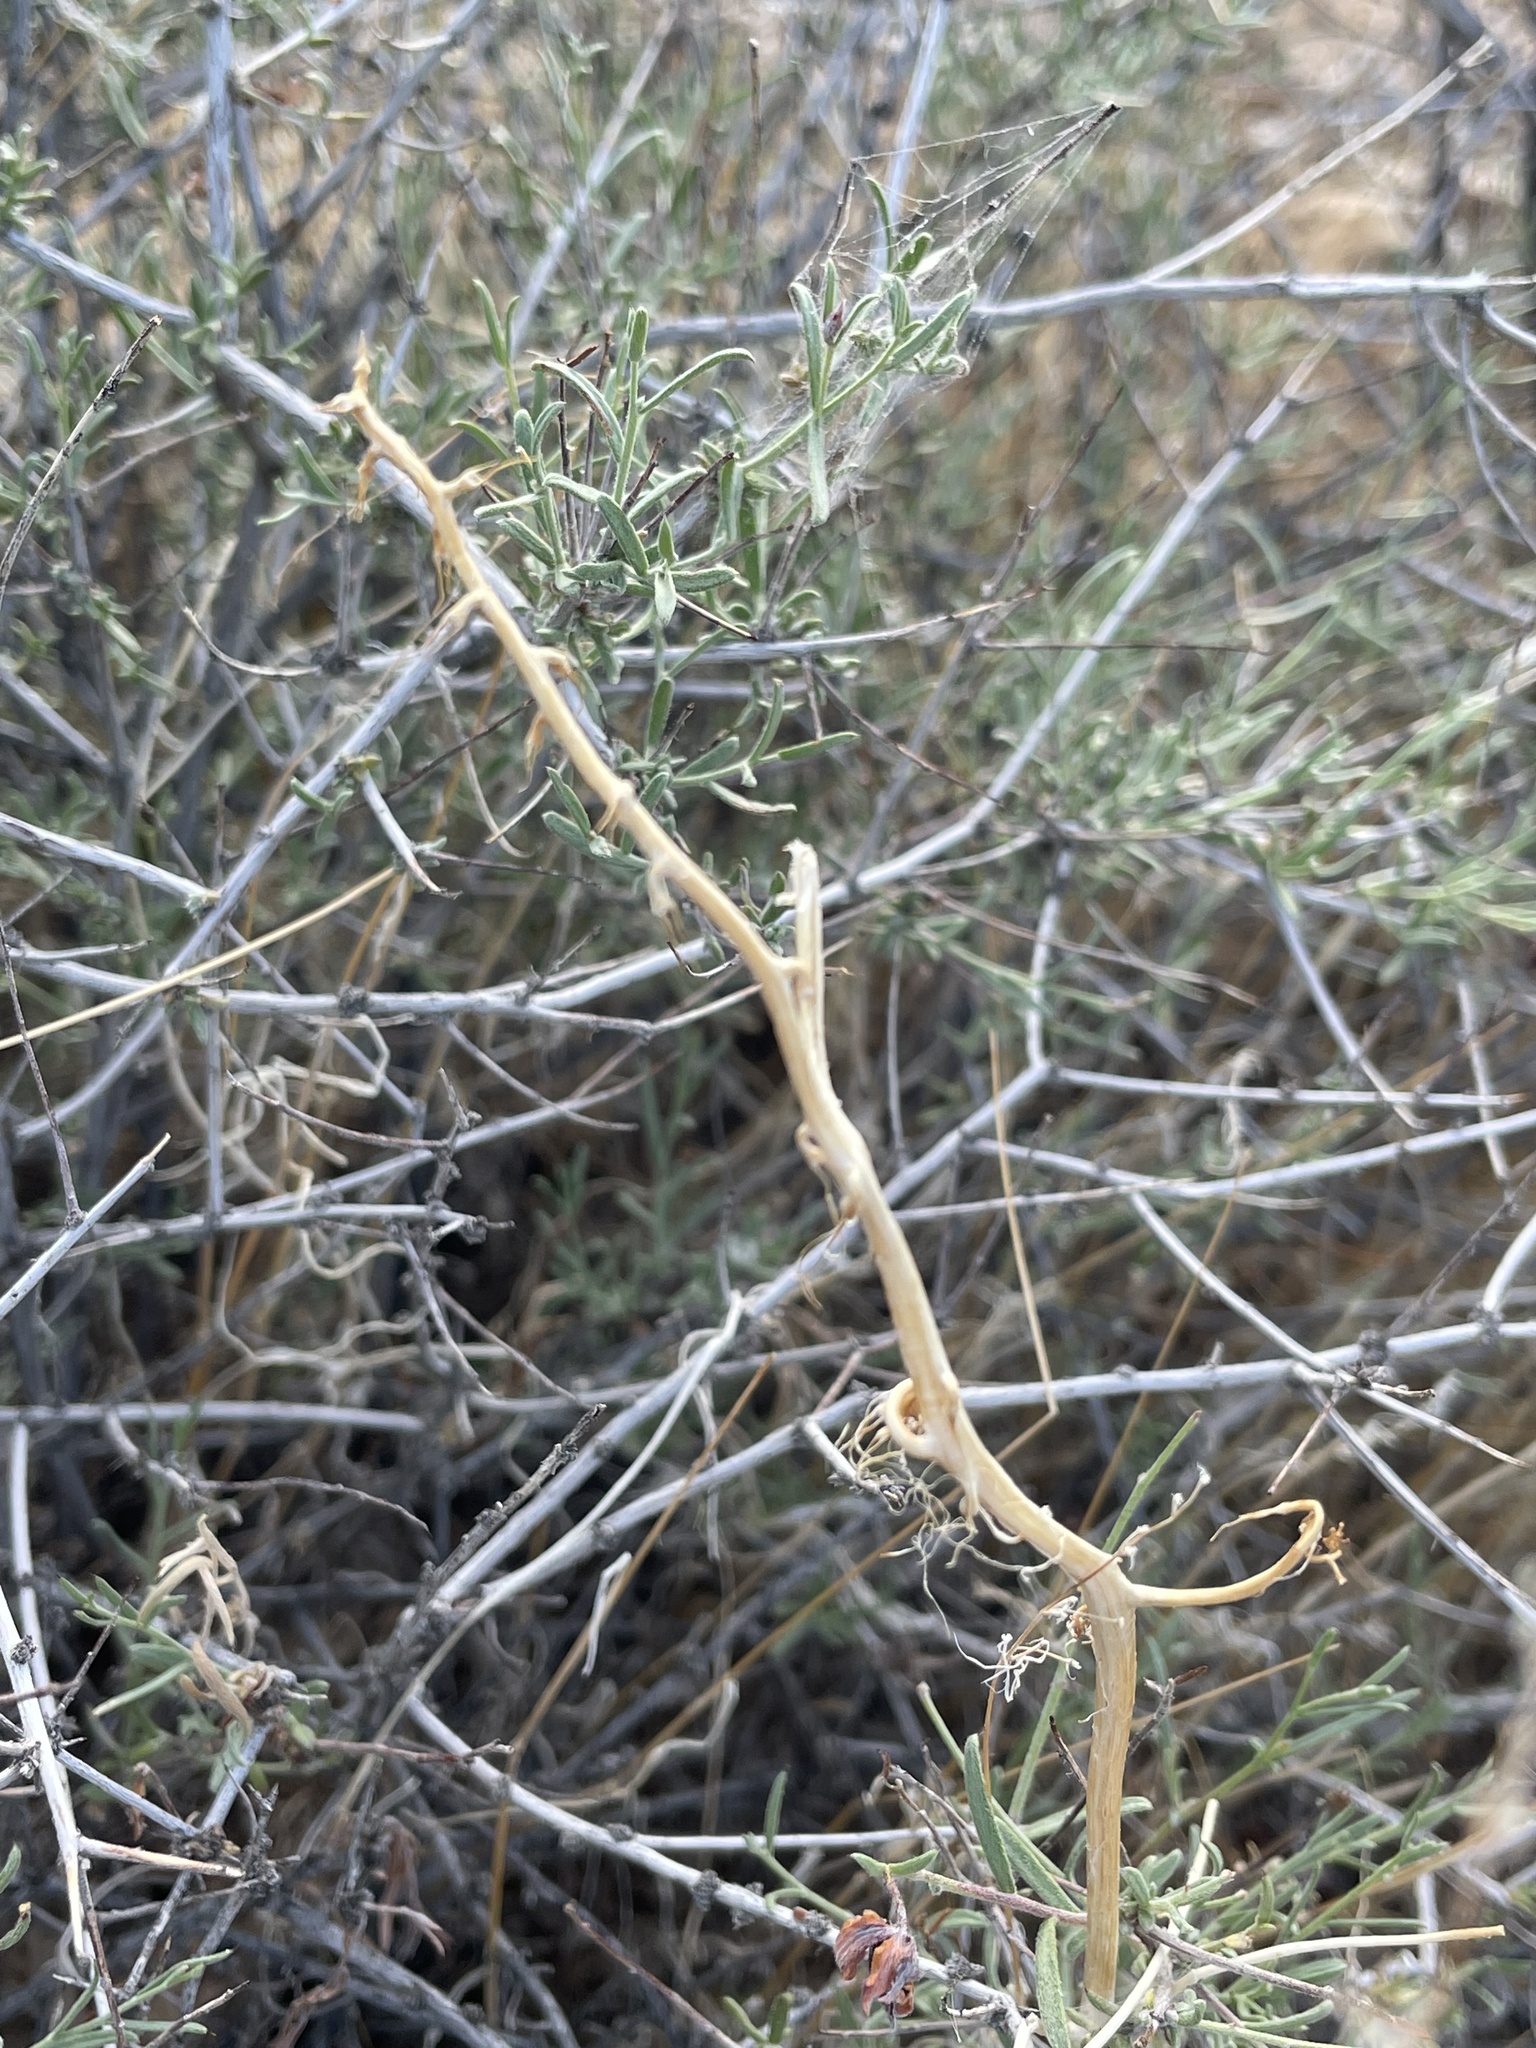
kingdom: Plantae
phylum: Tracheophyta
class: Magnoliopsida
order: Brassicales
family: Brassicaceae
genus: Brassica
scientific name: Brassica tournefortii
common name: Pale cabbage
